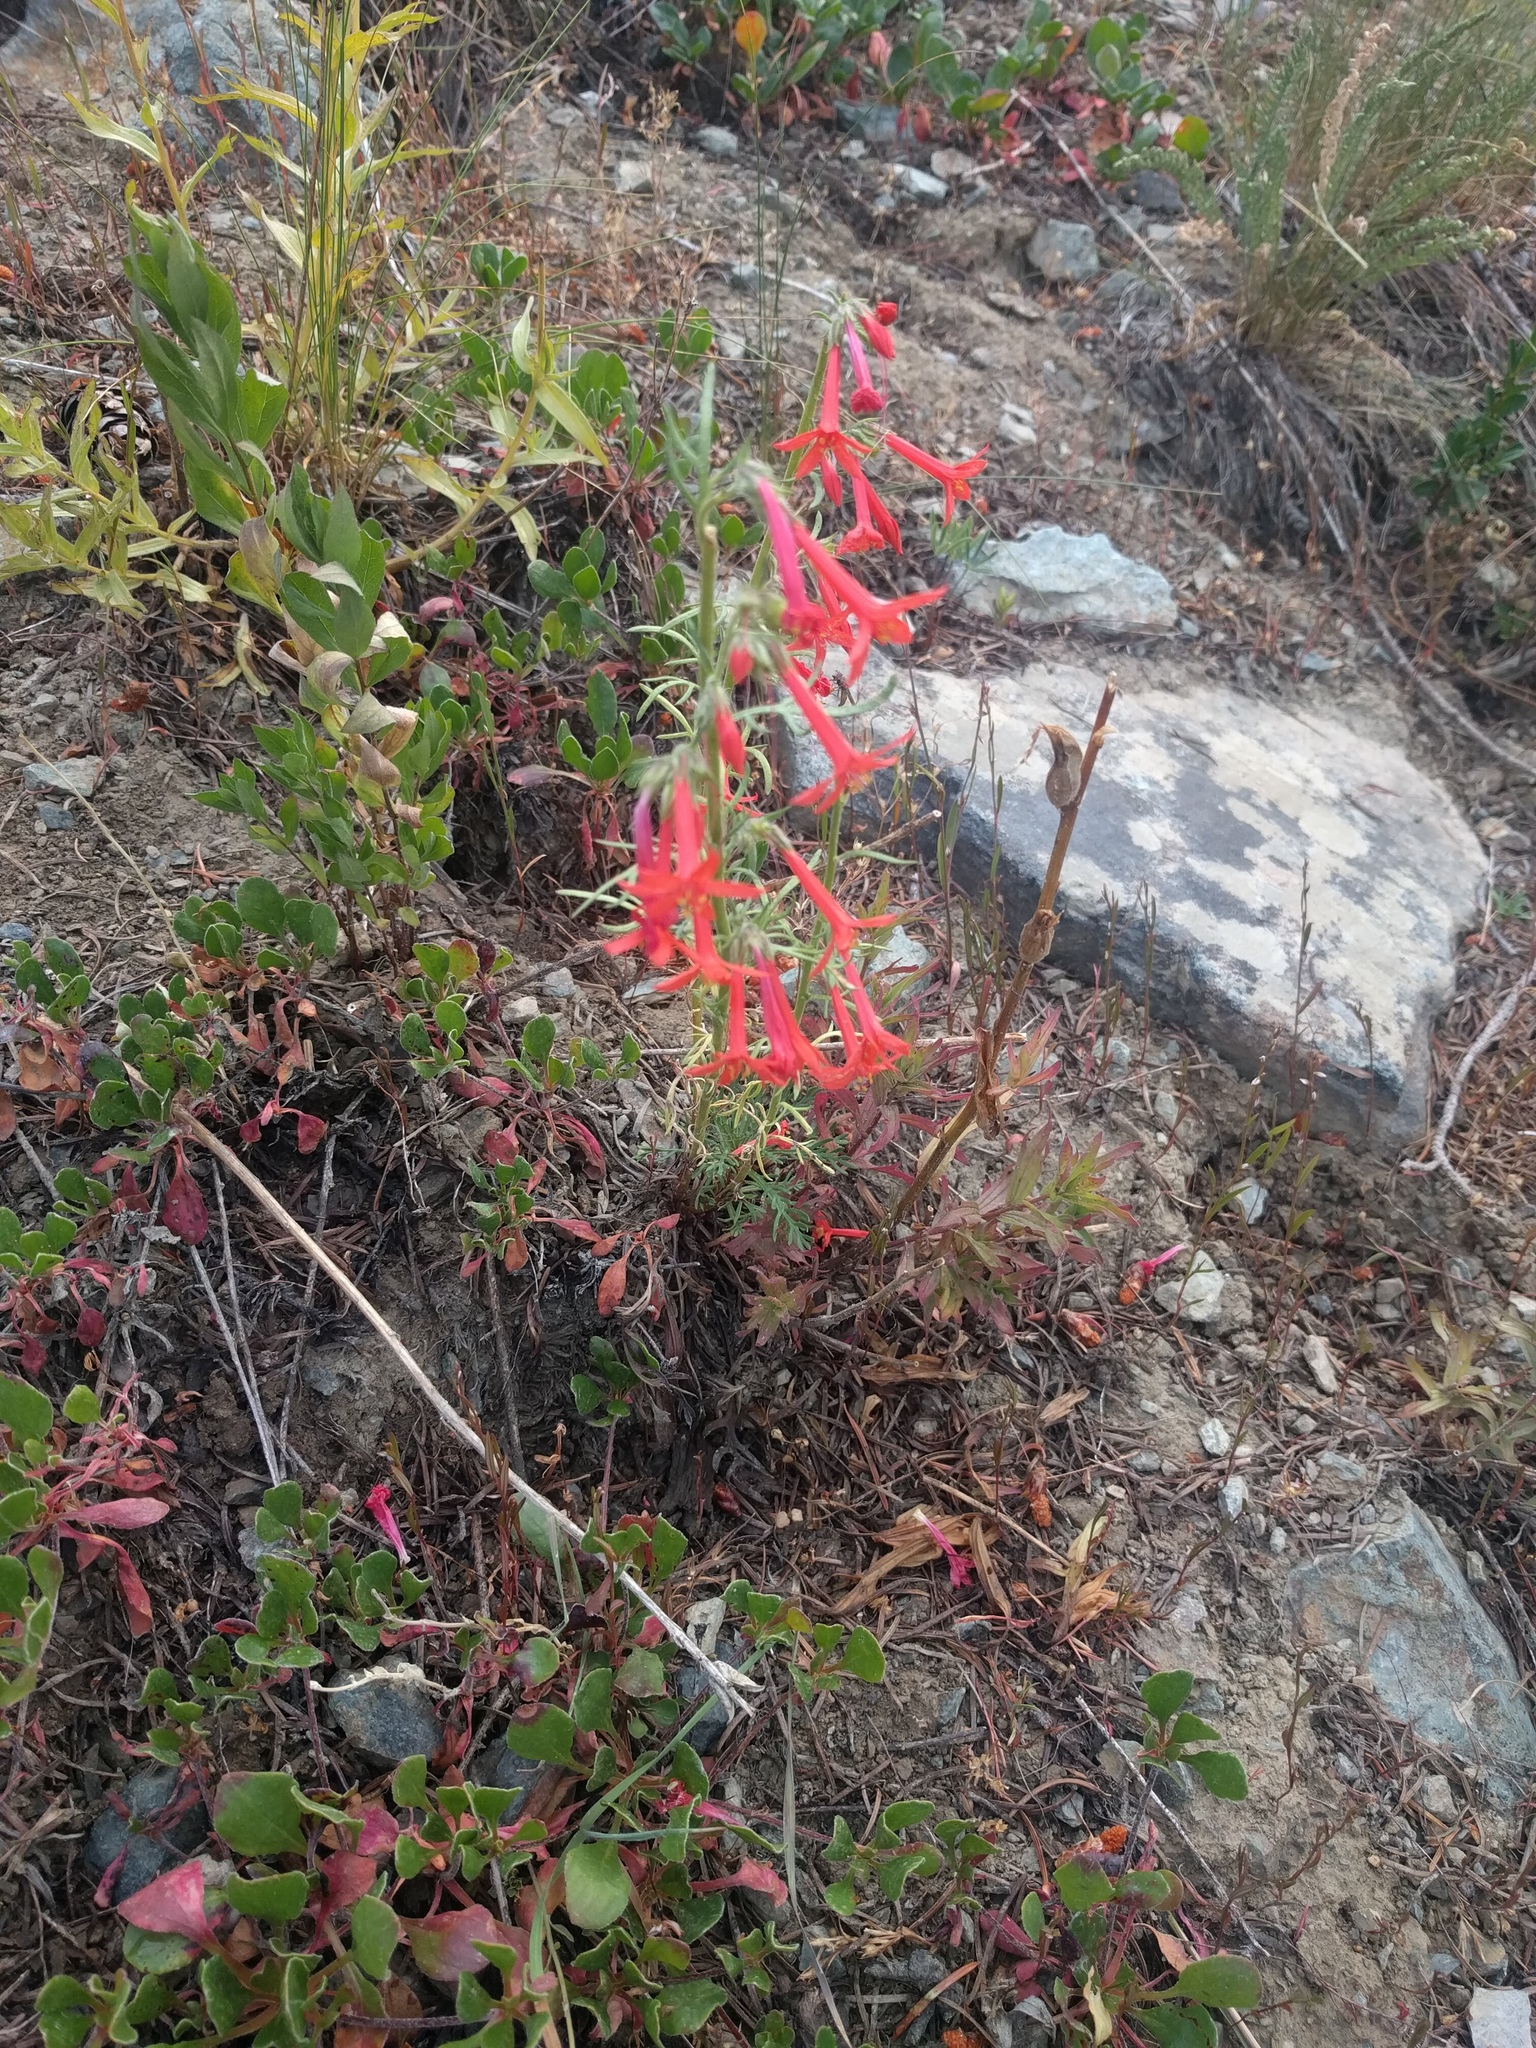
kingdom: Plantae
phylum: Tracheophyta
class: Magnoliopsida
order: Ericales
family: Polemoniaceae
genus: Ipomopsis
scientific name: Ipomopsis aggregata
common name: Scarlet gilia
